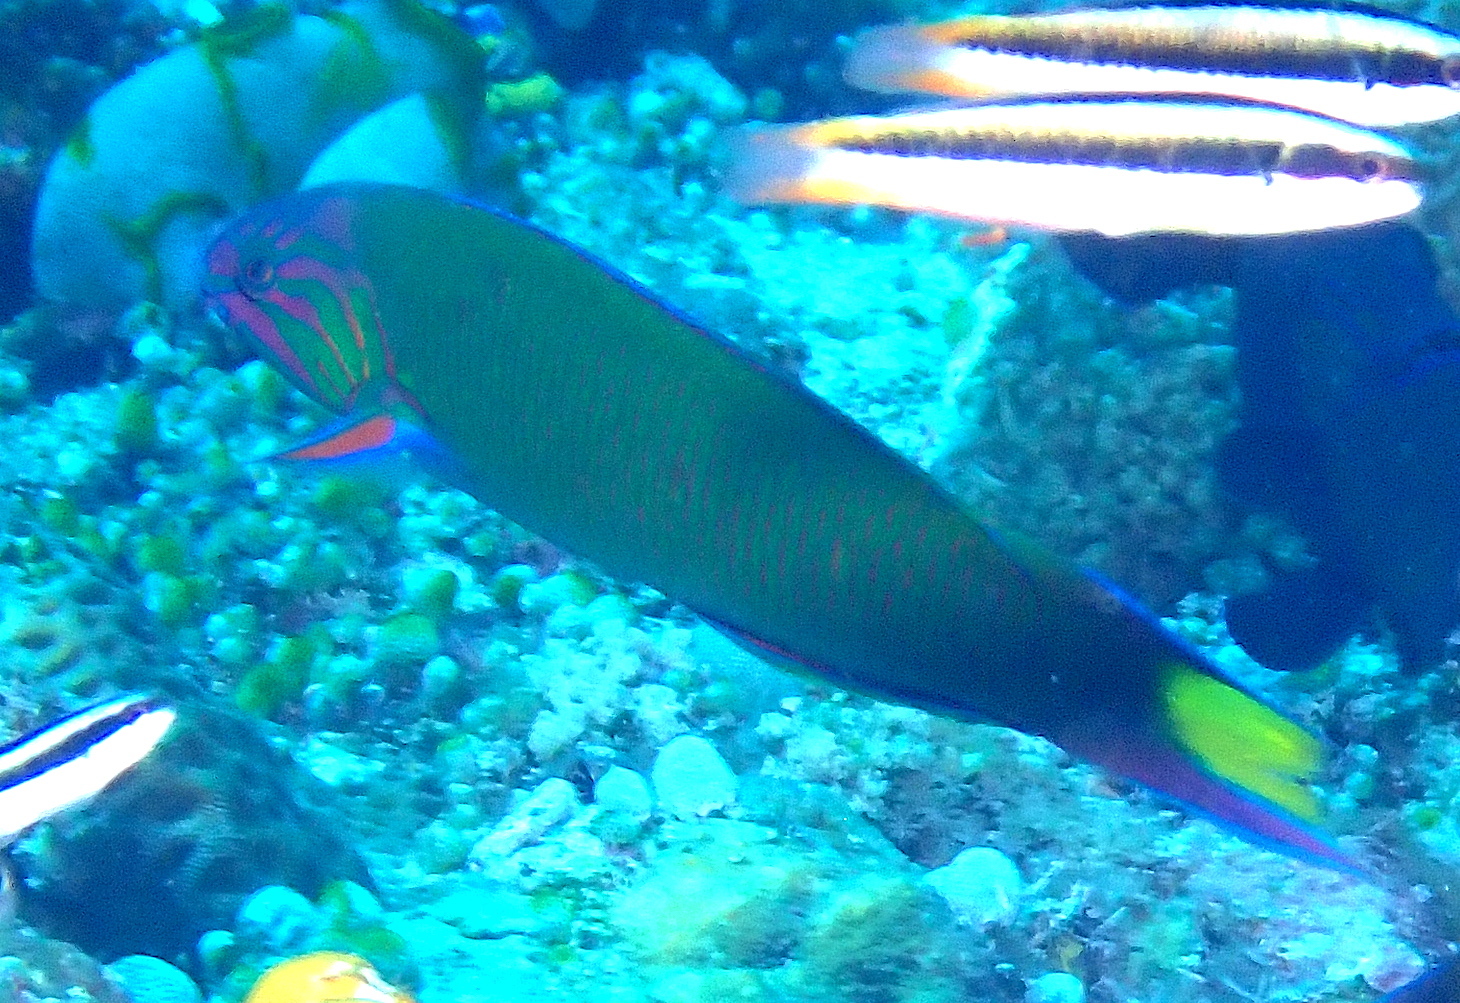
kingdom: Animalia
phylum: Chordata
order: Perciformes
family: Labridae
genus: Thalassoma
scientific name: Thalassoma lunare
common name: Blue wrasse
